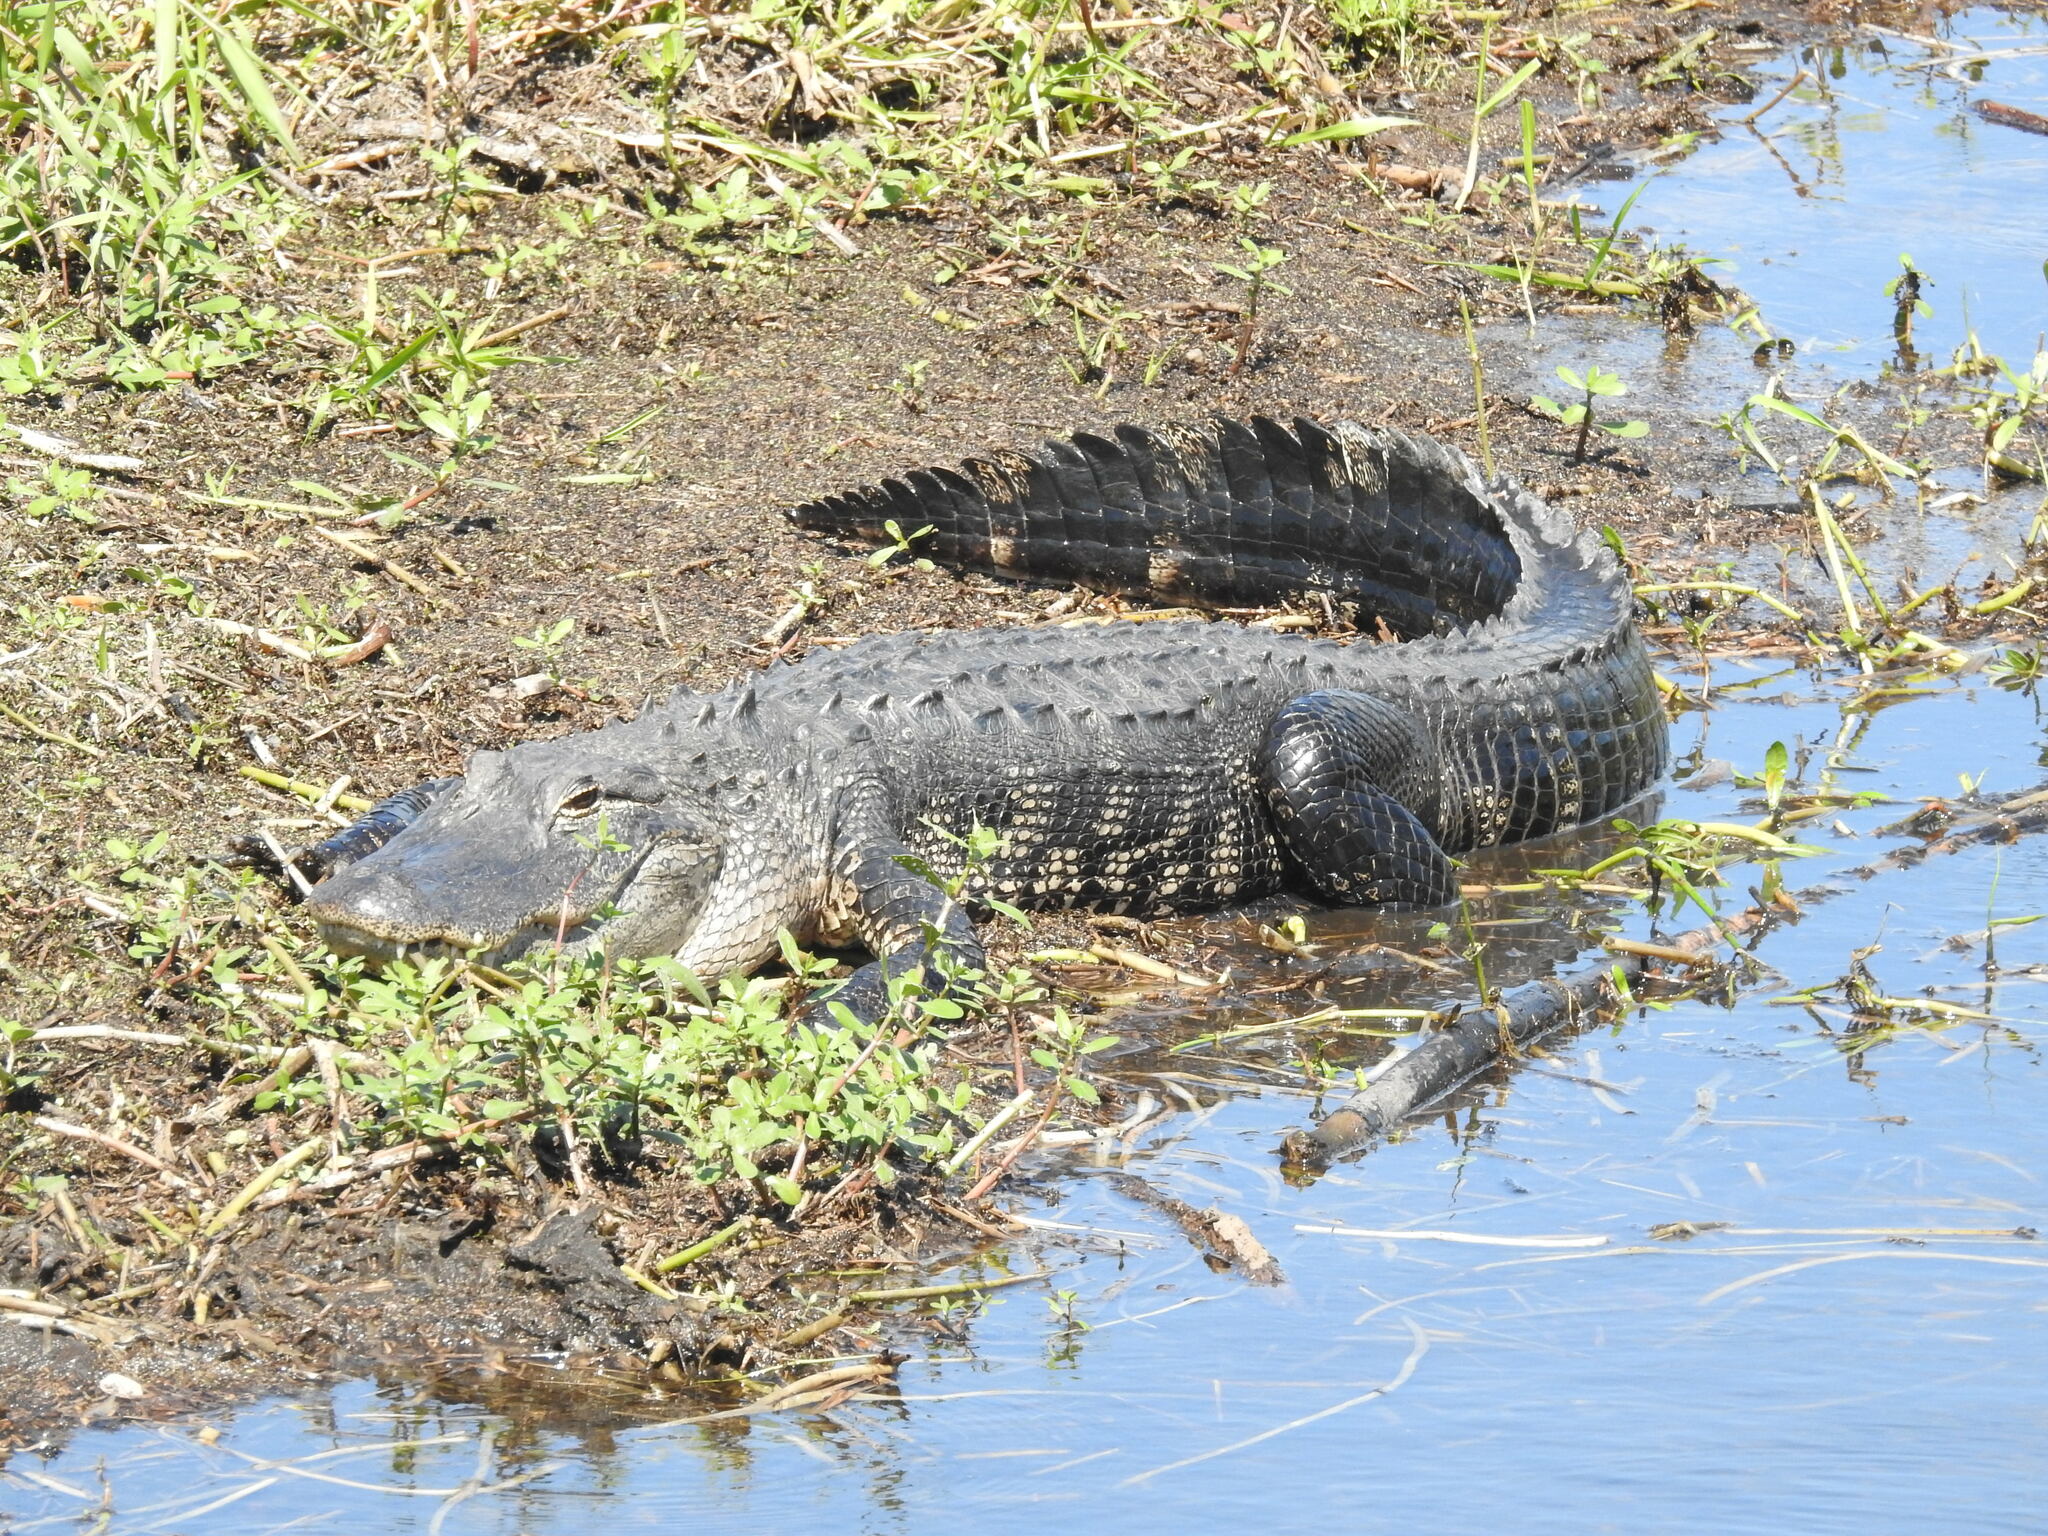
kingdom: Animalia
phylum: Chordata
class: Crocodylia
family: Alligatoridae
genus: Alligator
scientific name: Alligator mississippiensis
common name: American alligator
